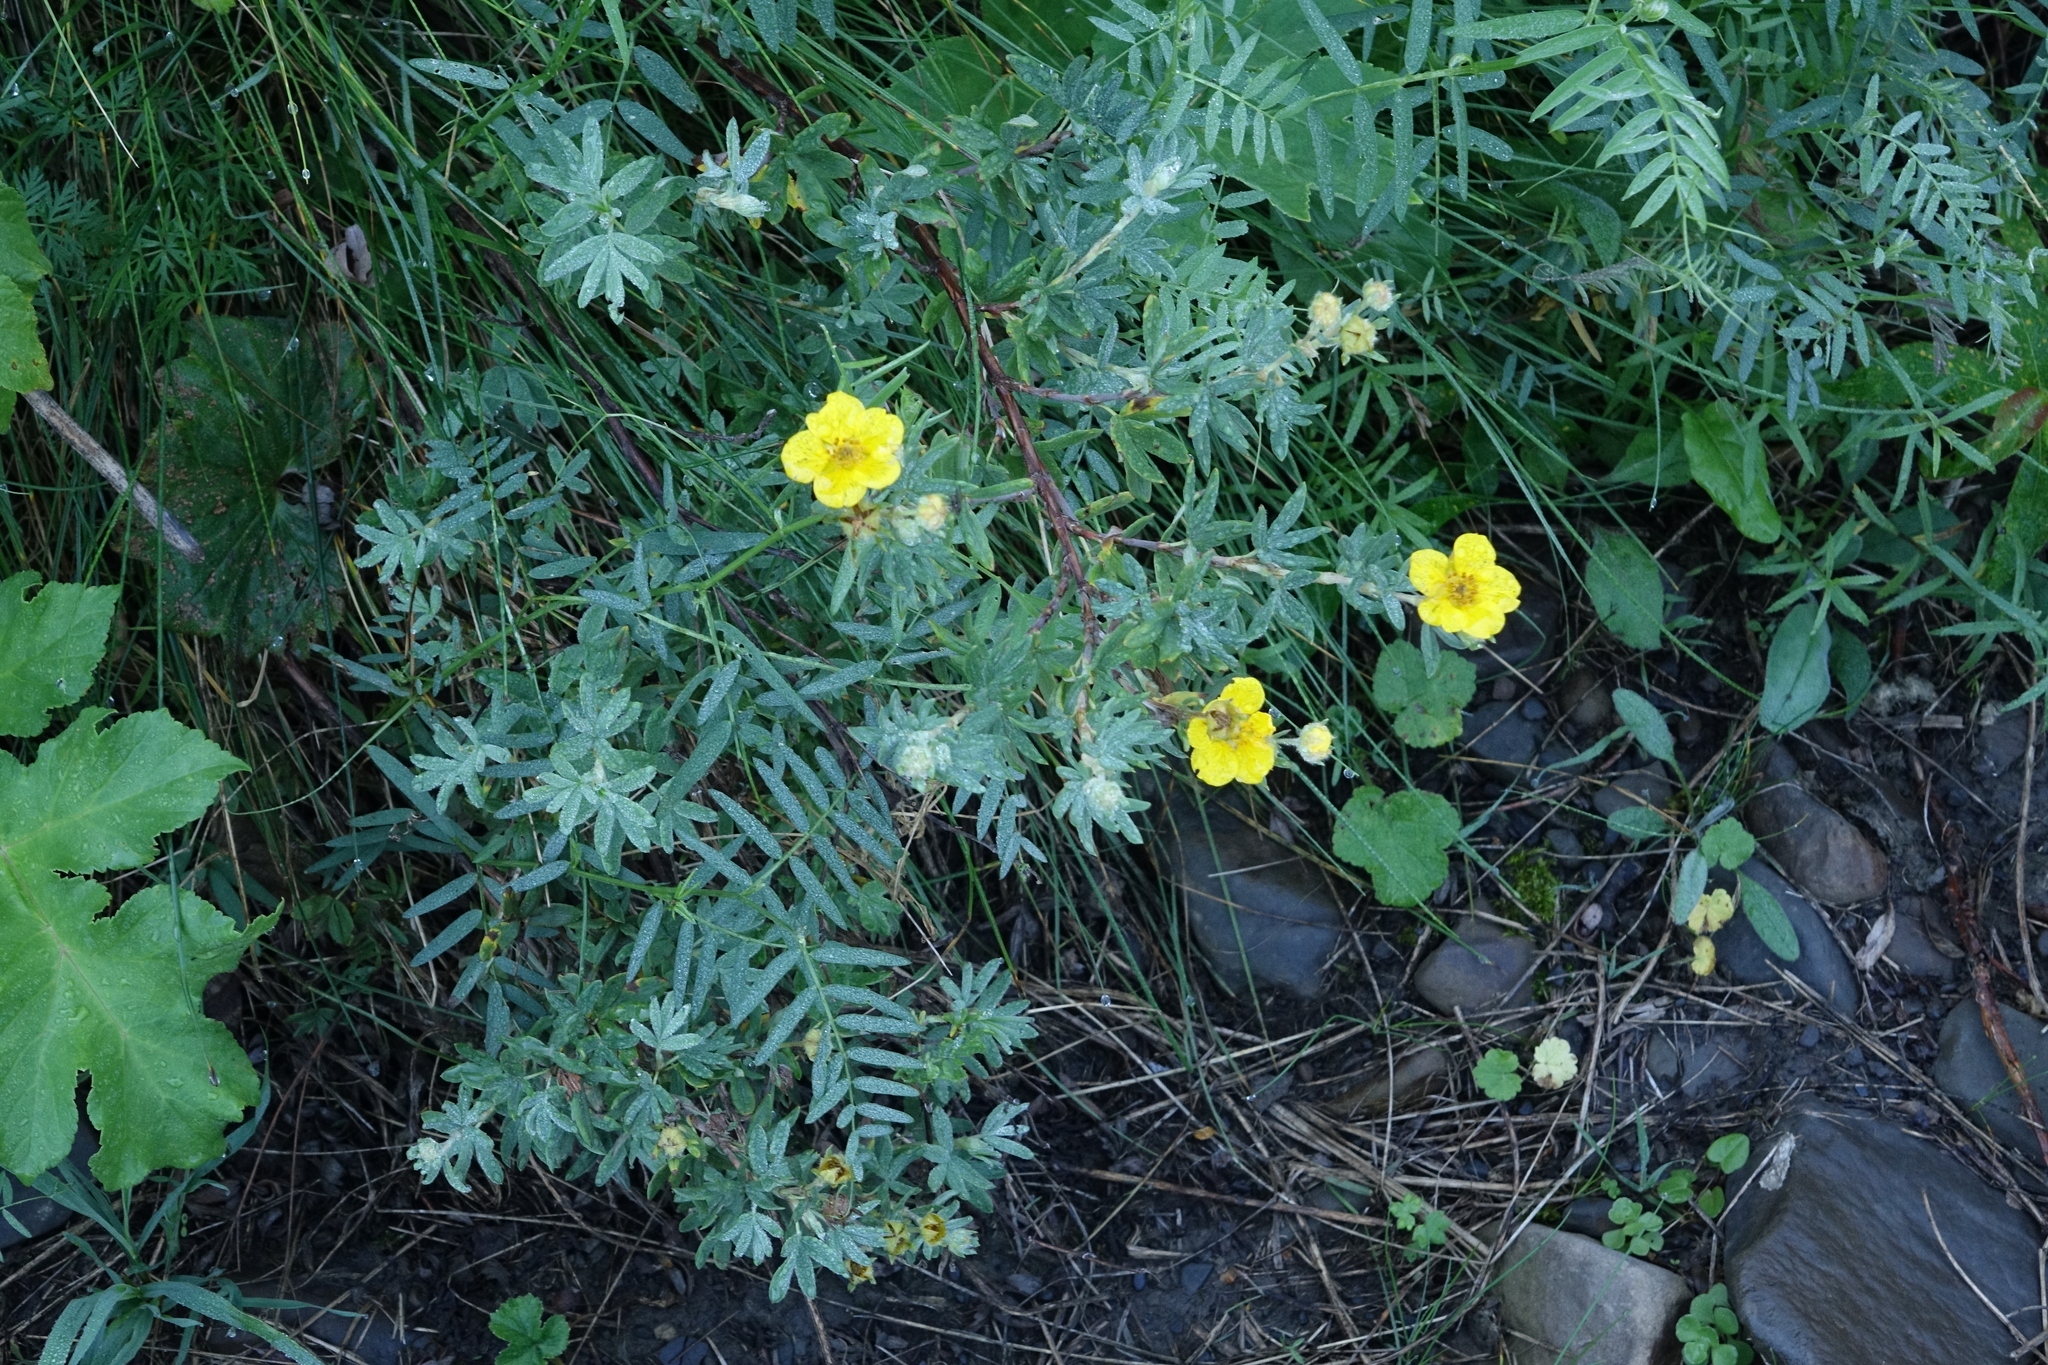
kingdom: Plantae
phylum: Tracheophyta
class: Magnoliopsida
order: Rosales
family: Rosaceae
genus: Dasiphora
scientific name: Dasiphora fruticosa
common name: Shrubby cinquefoil
